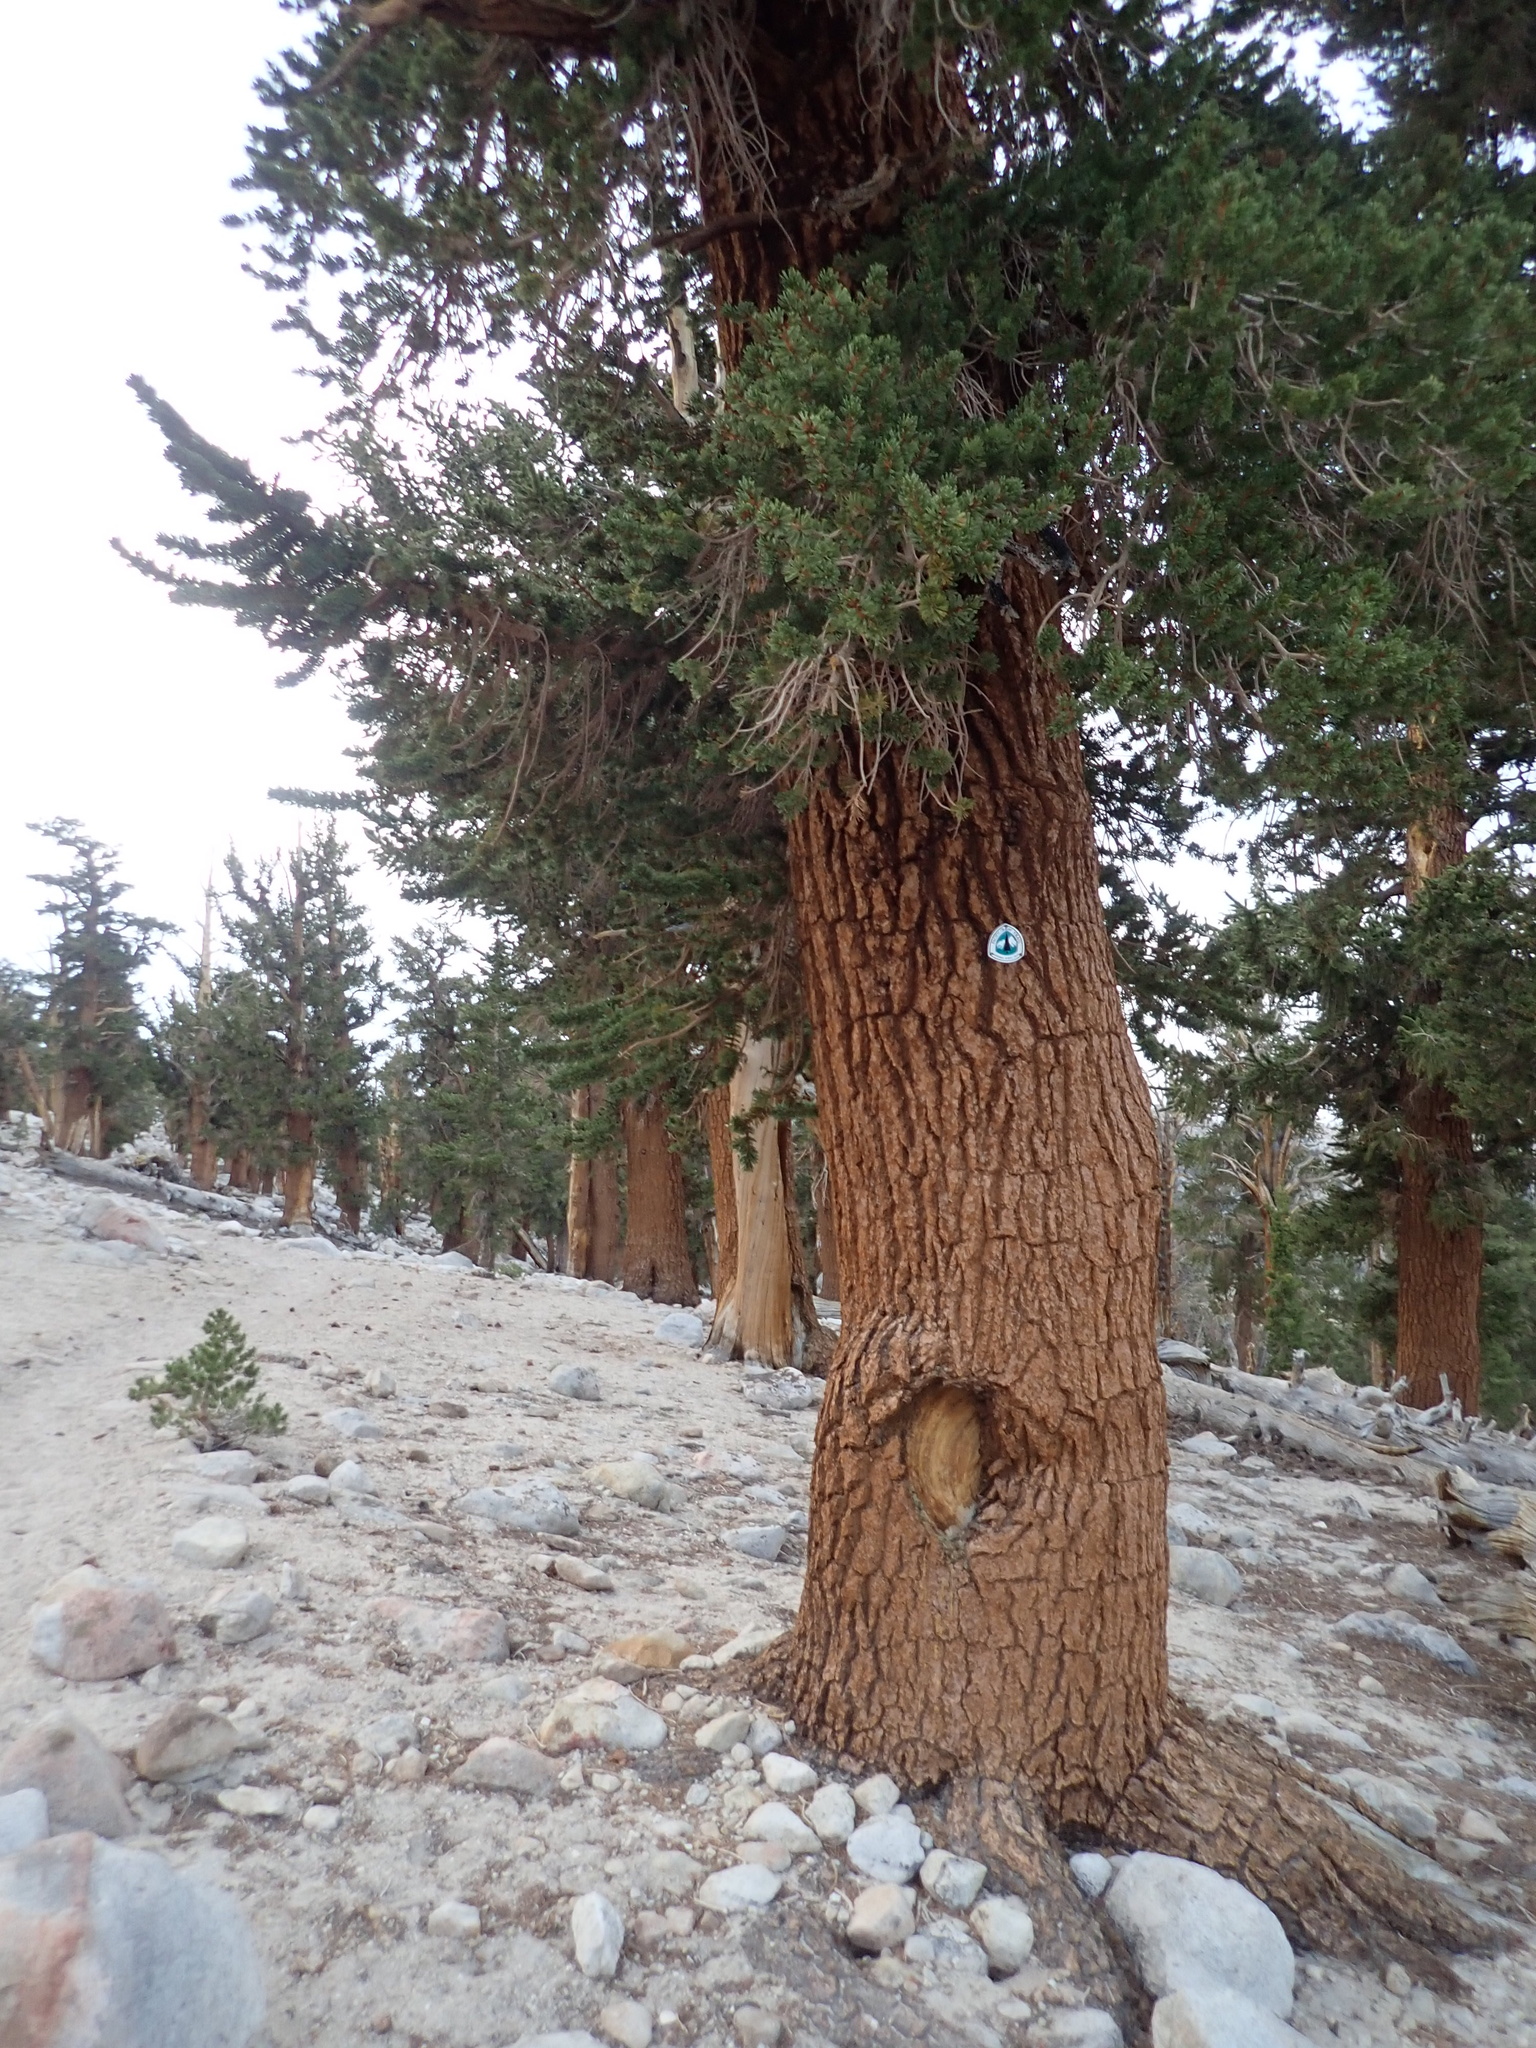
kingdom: Plantae
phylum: Tracheophyta
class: Pinopsida
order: Pinales
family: Pinaceae
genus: Pinus
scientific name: Pinus balfouriana
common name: Foxtail pine
